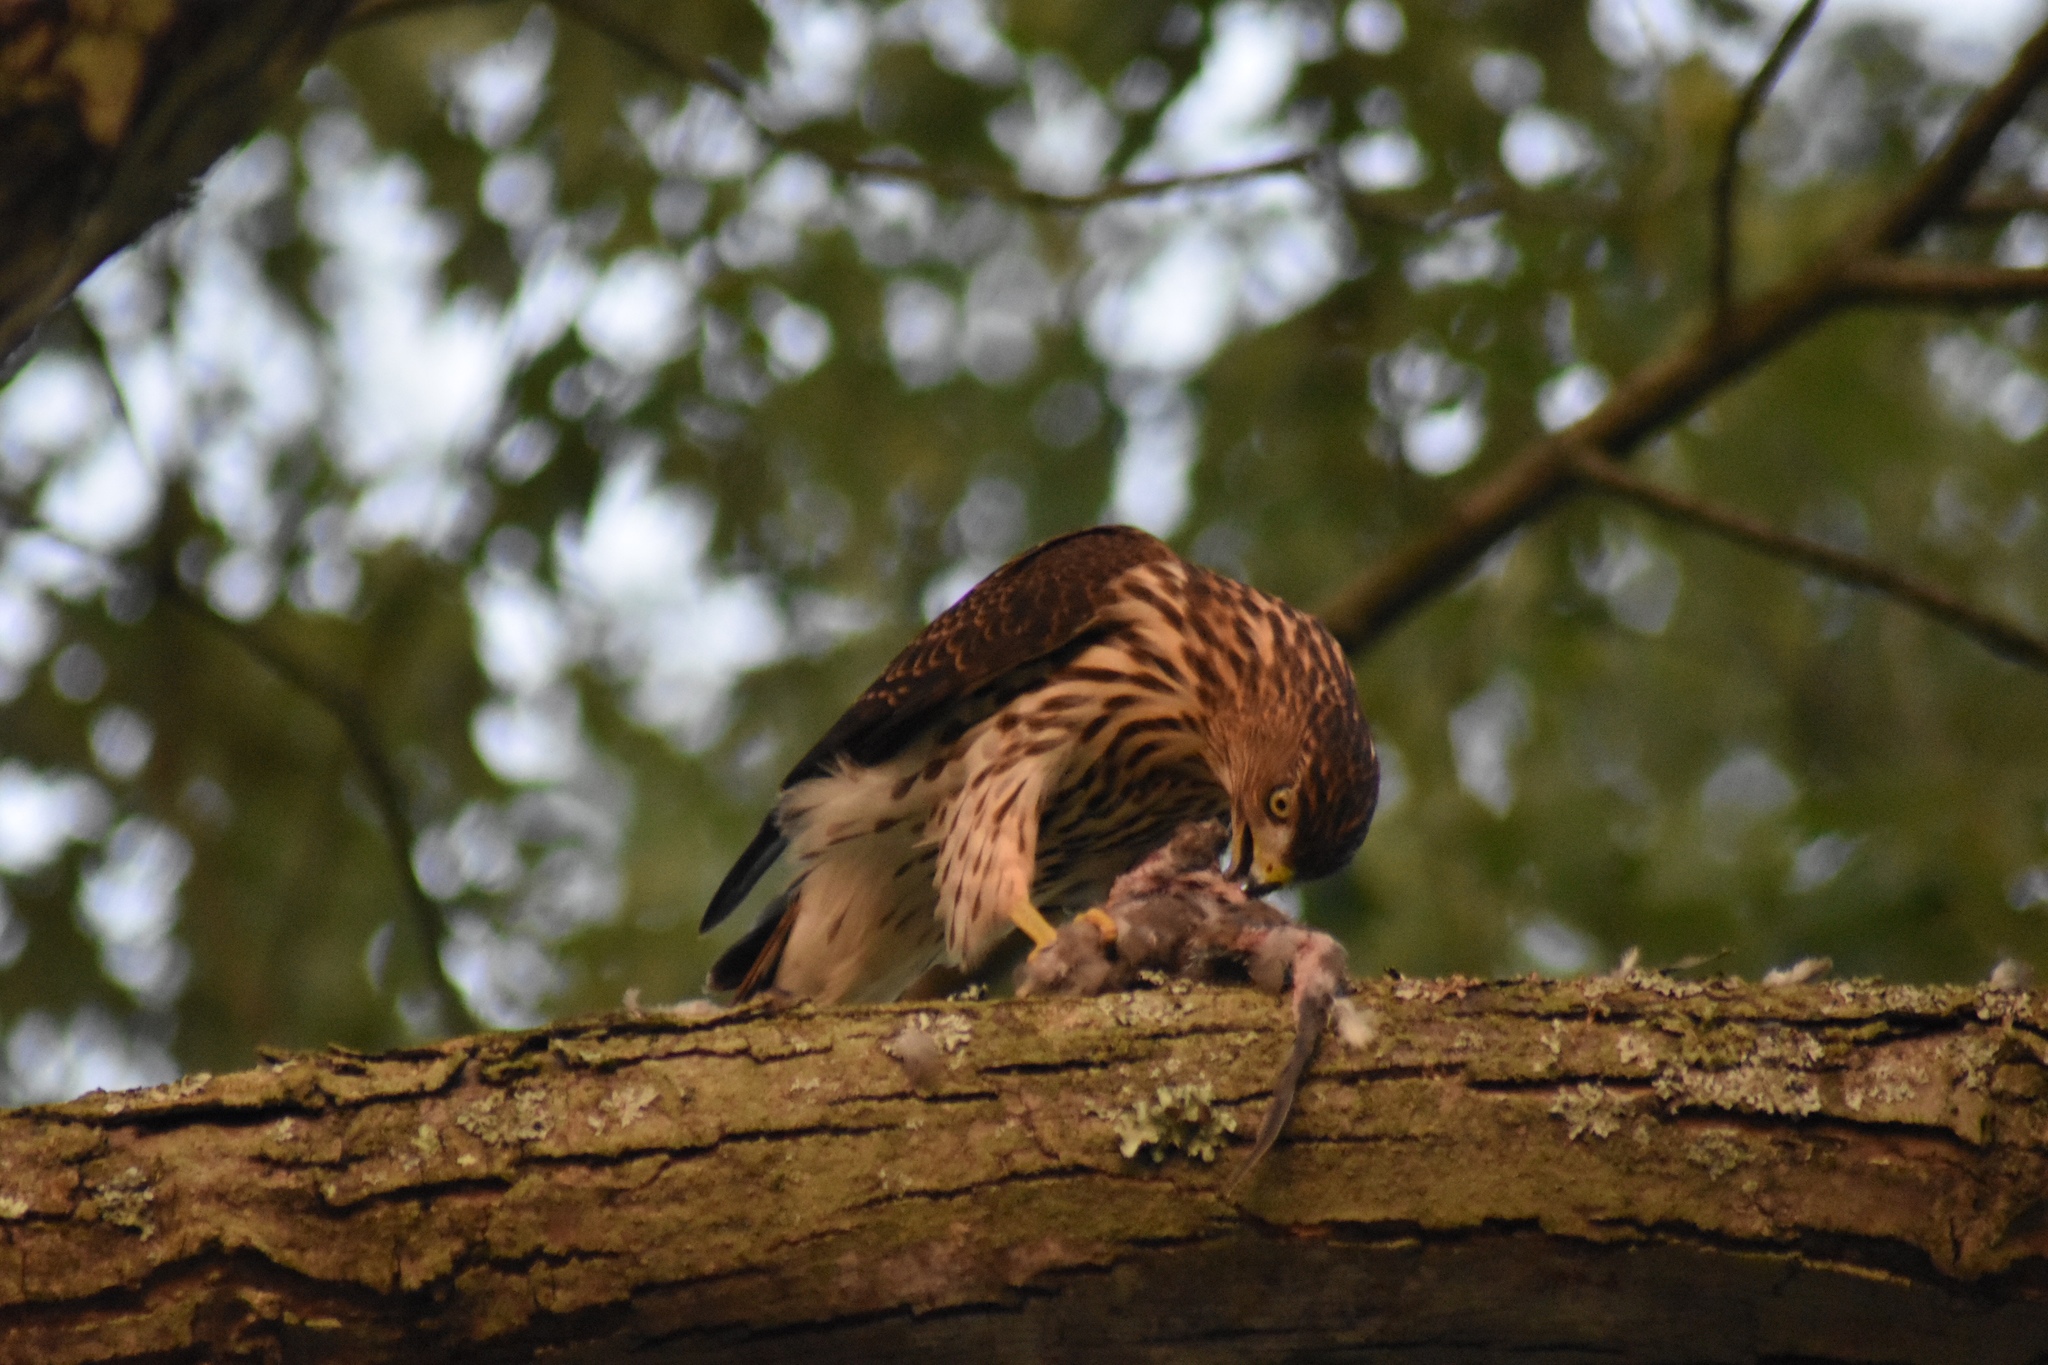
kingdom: Animalia
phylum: Chordata
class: Aves
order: Accipitriformes
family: Accipitridae
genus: Accipiter
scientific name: Accipiter cooperii
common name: Cooper's hawk
